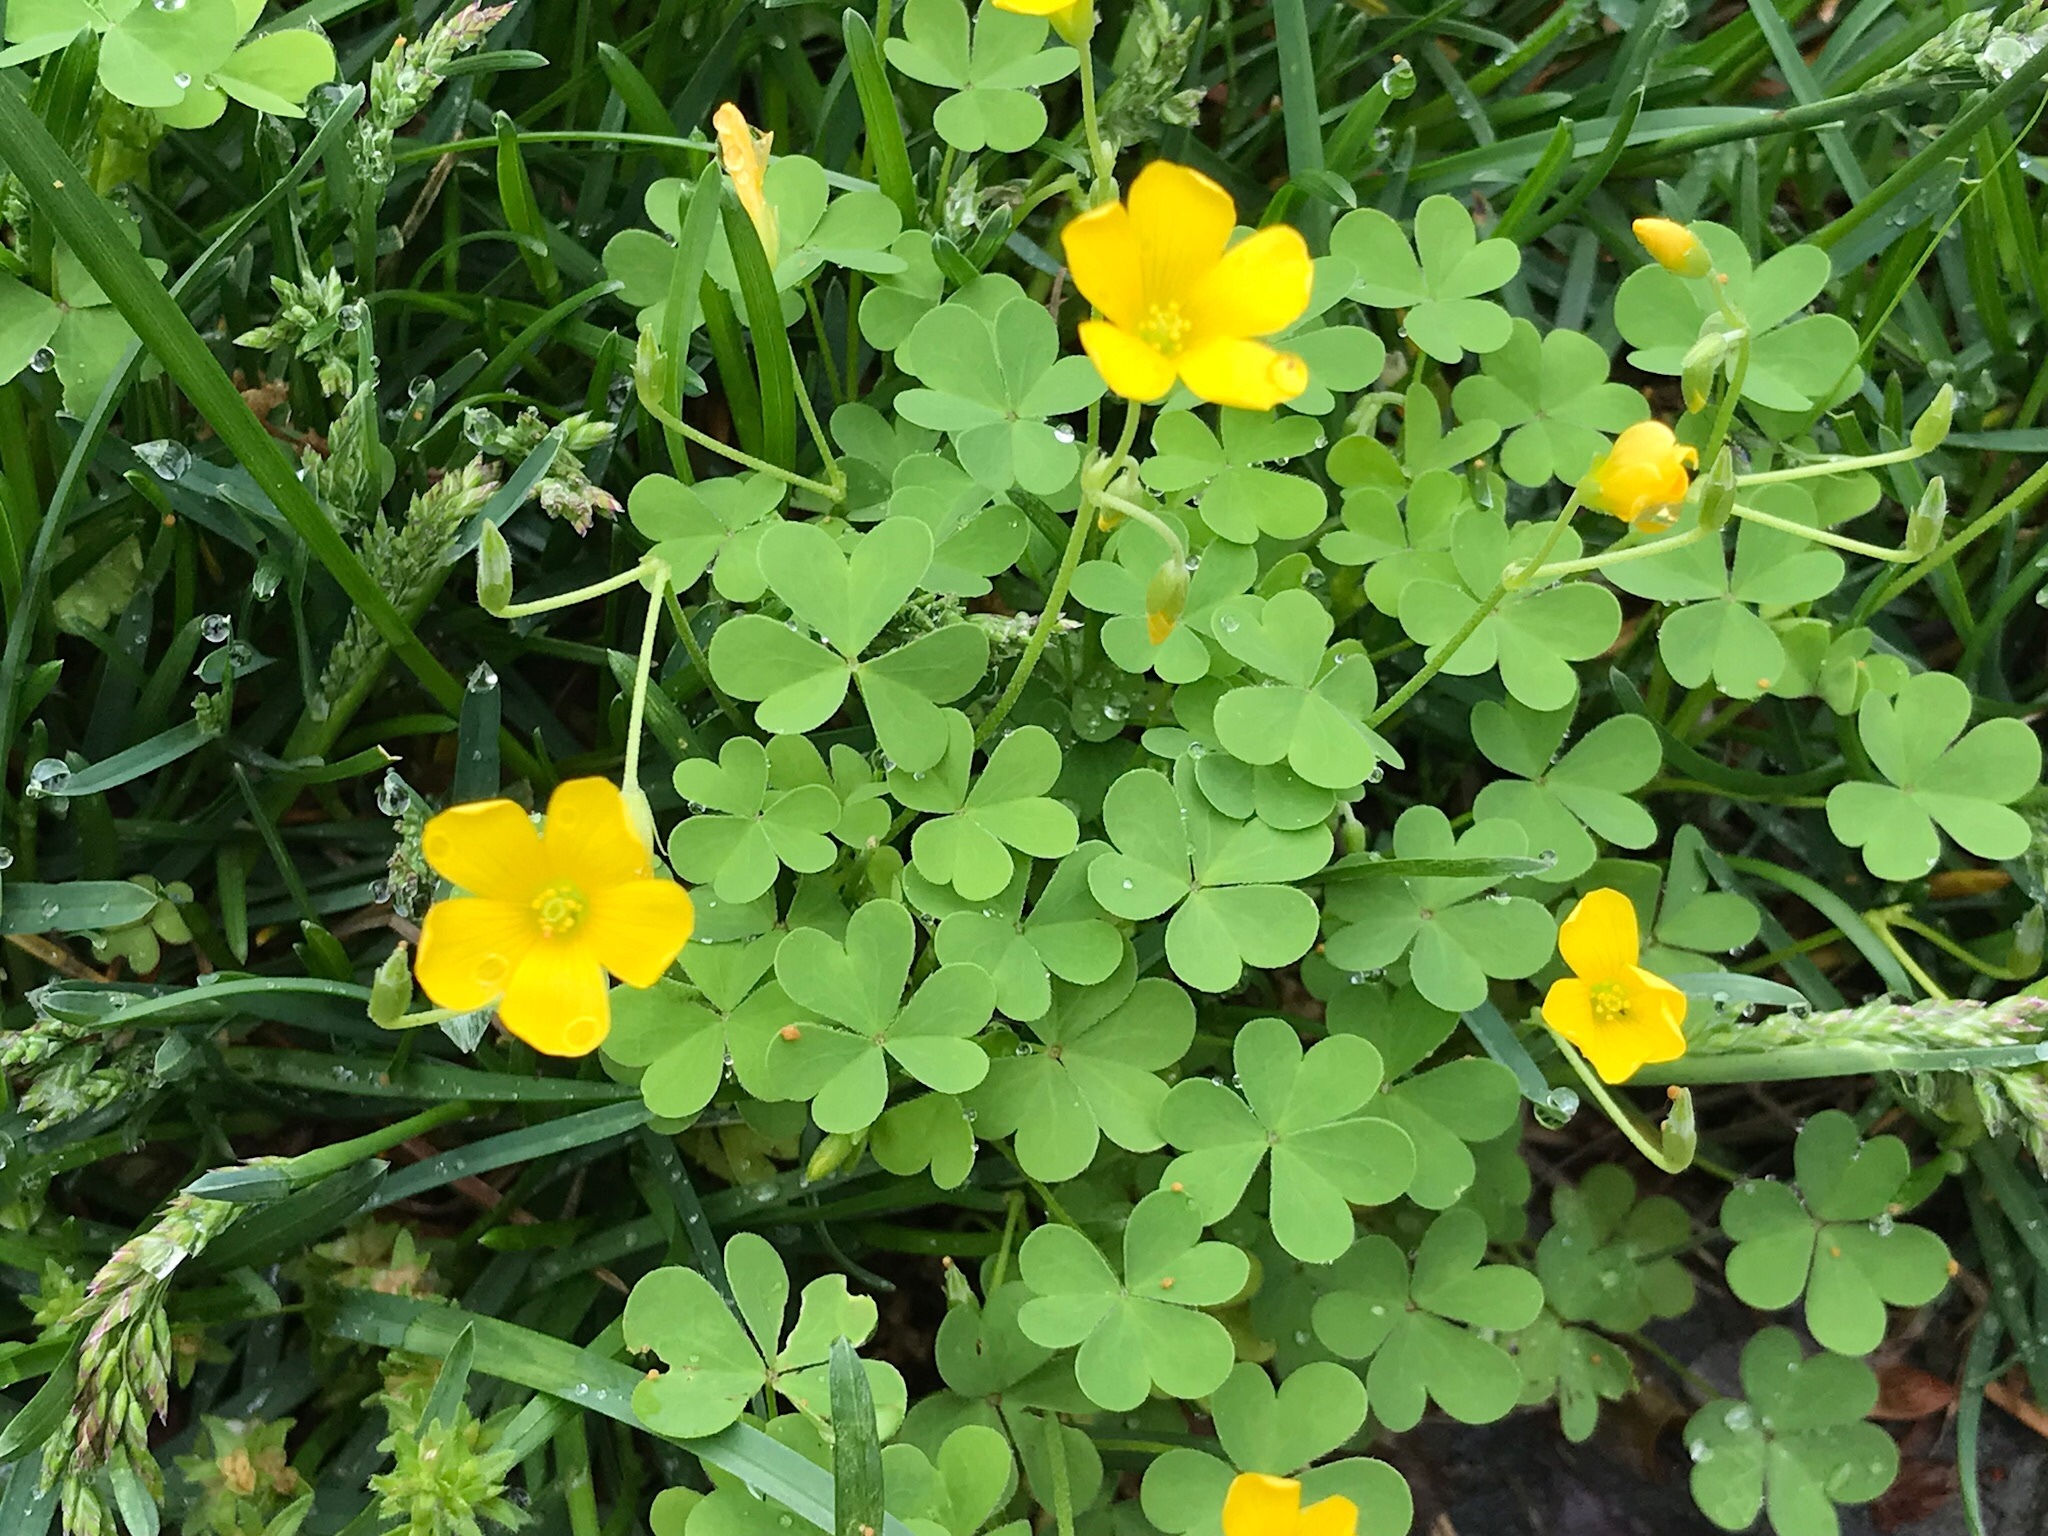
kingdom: Plantae
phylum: Tracheophyta
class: Magnoliopsida
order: Oxalidales
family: Oxalidaceae
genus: Oxalis
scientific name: Oxalis corniculata
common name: Procumbent yellow-sorrel
